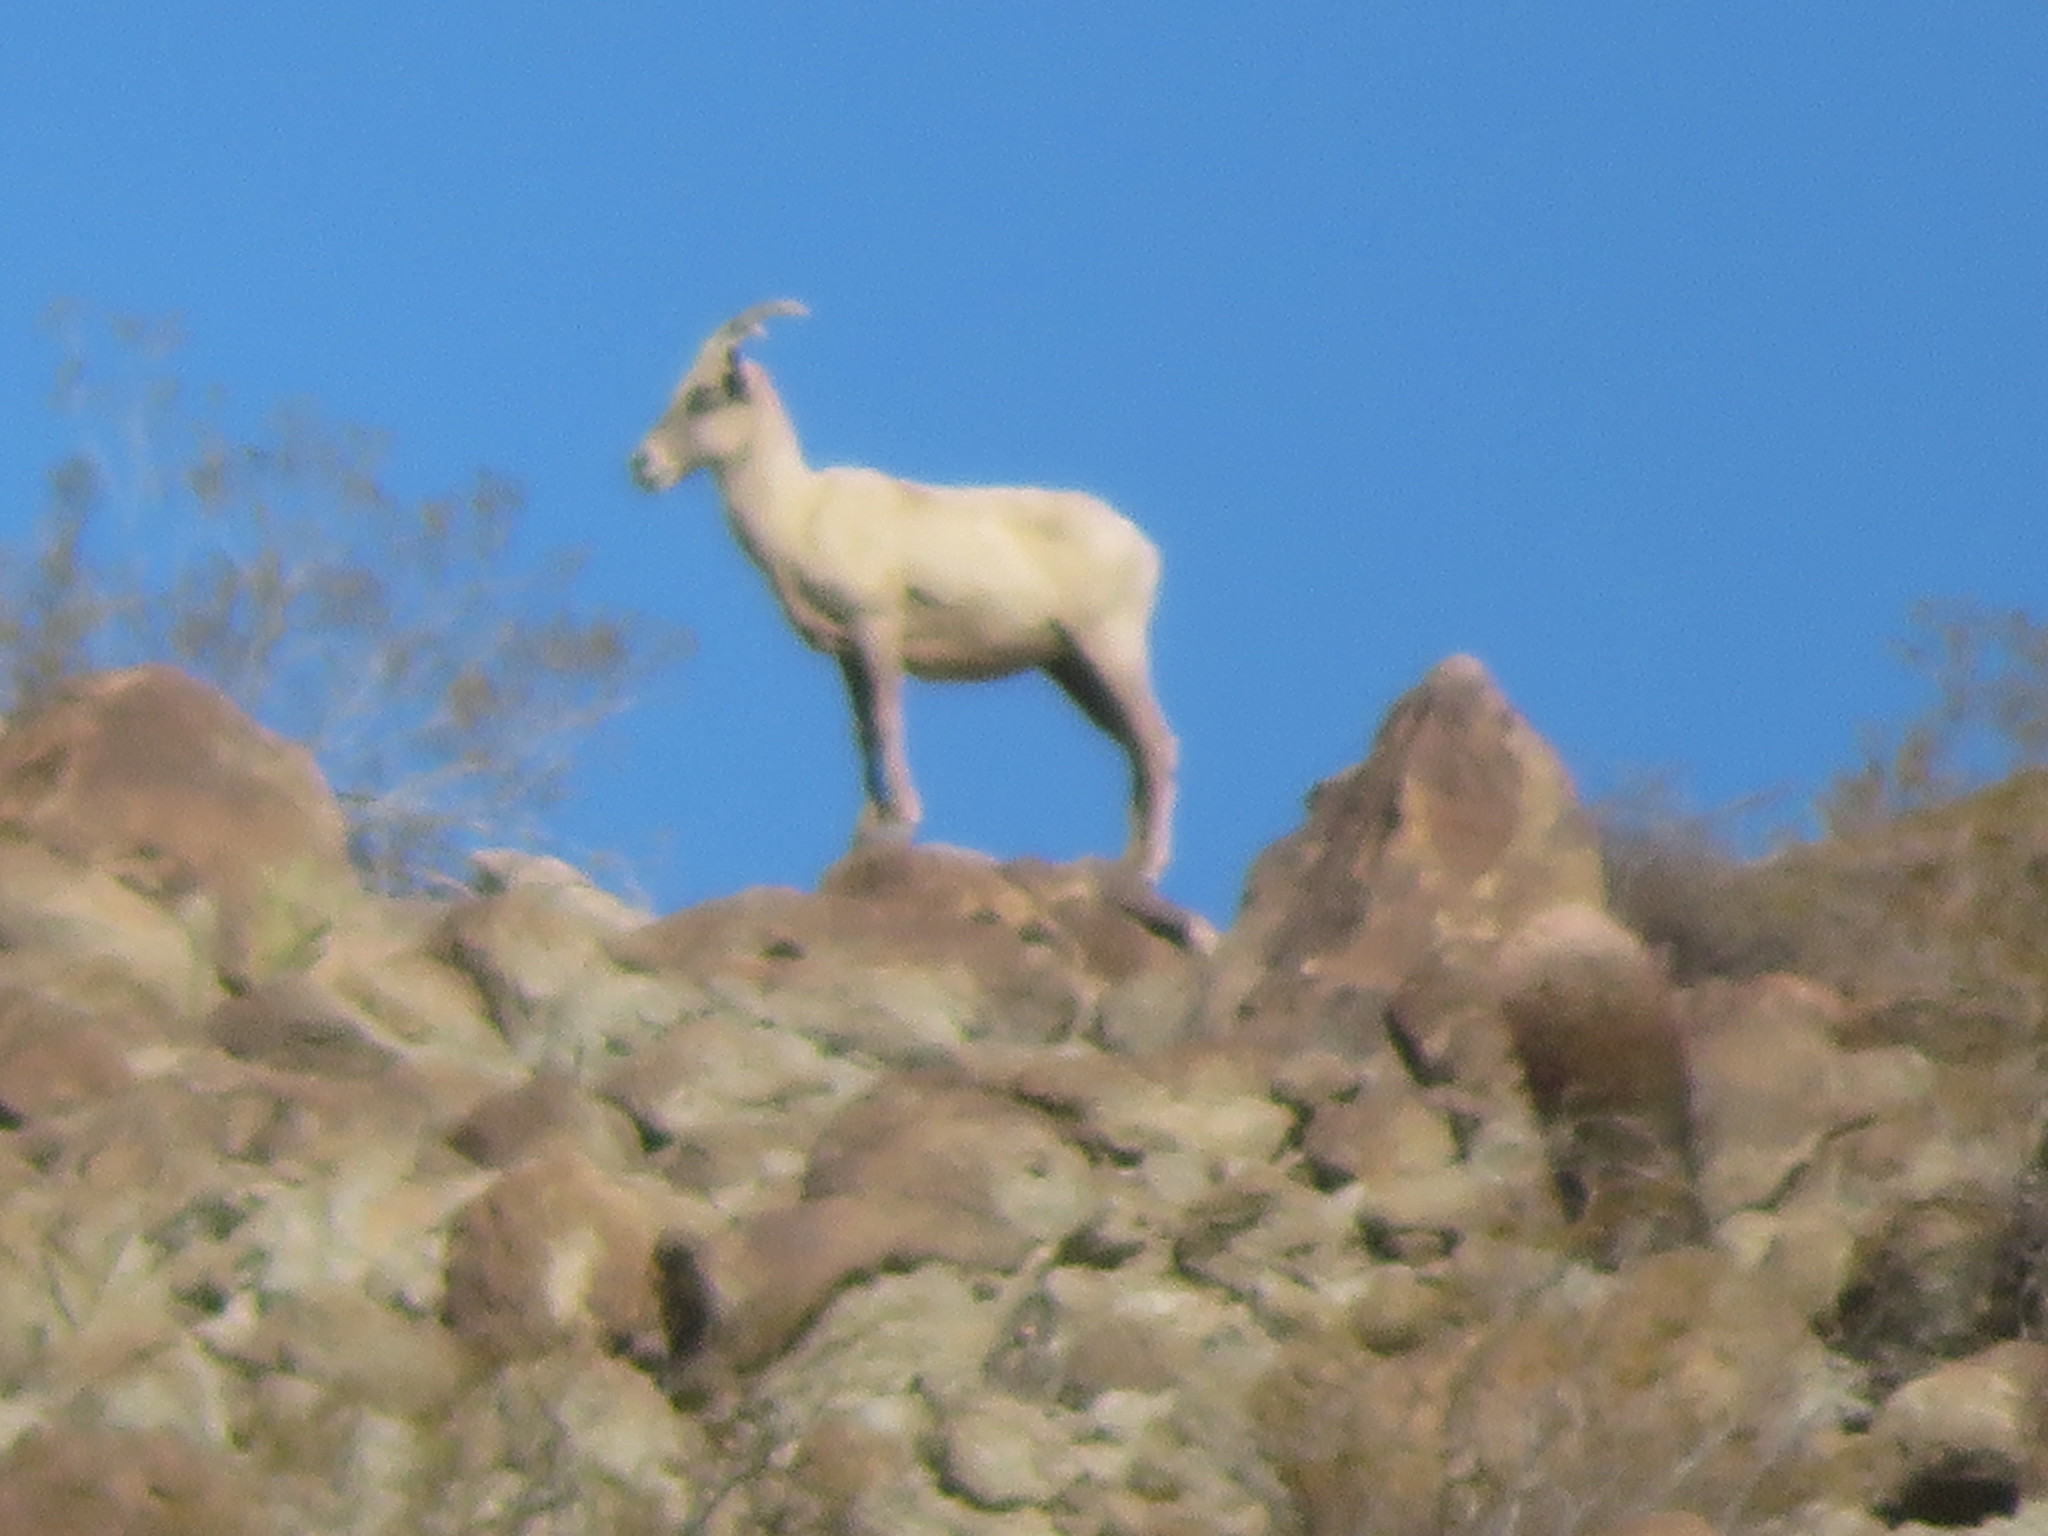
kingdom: Animalia
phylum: Chordata
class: Mammalia
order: Artiodactyla
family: Bovidae
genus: Ovis
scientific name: Ovis canadensis
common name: Bighorn sheep
